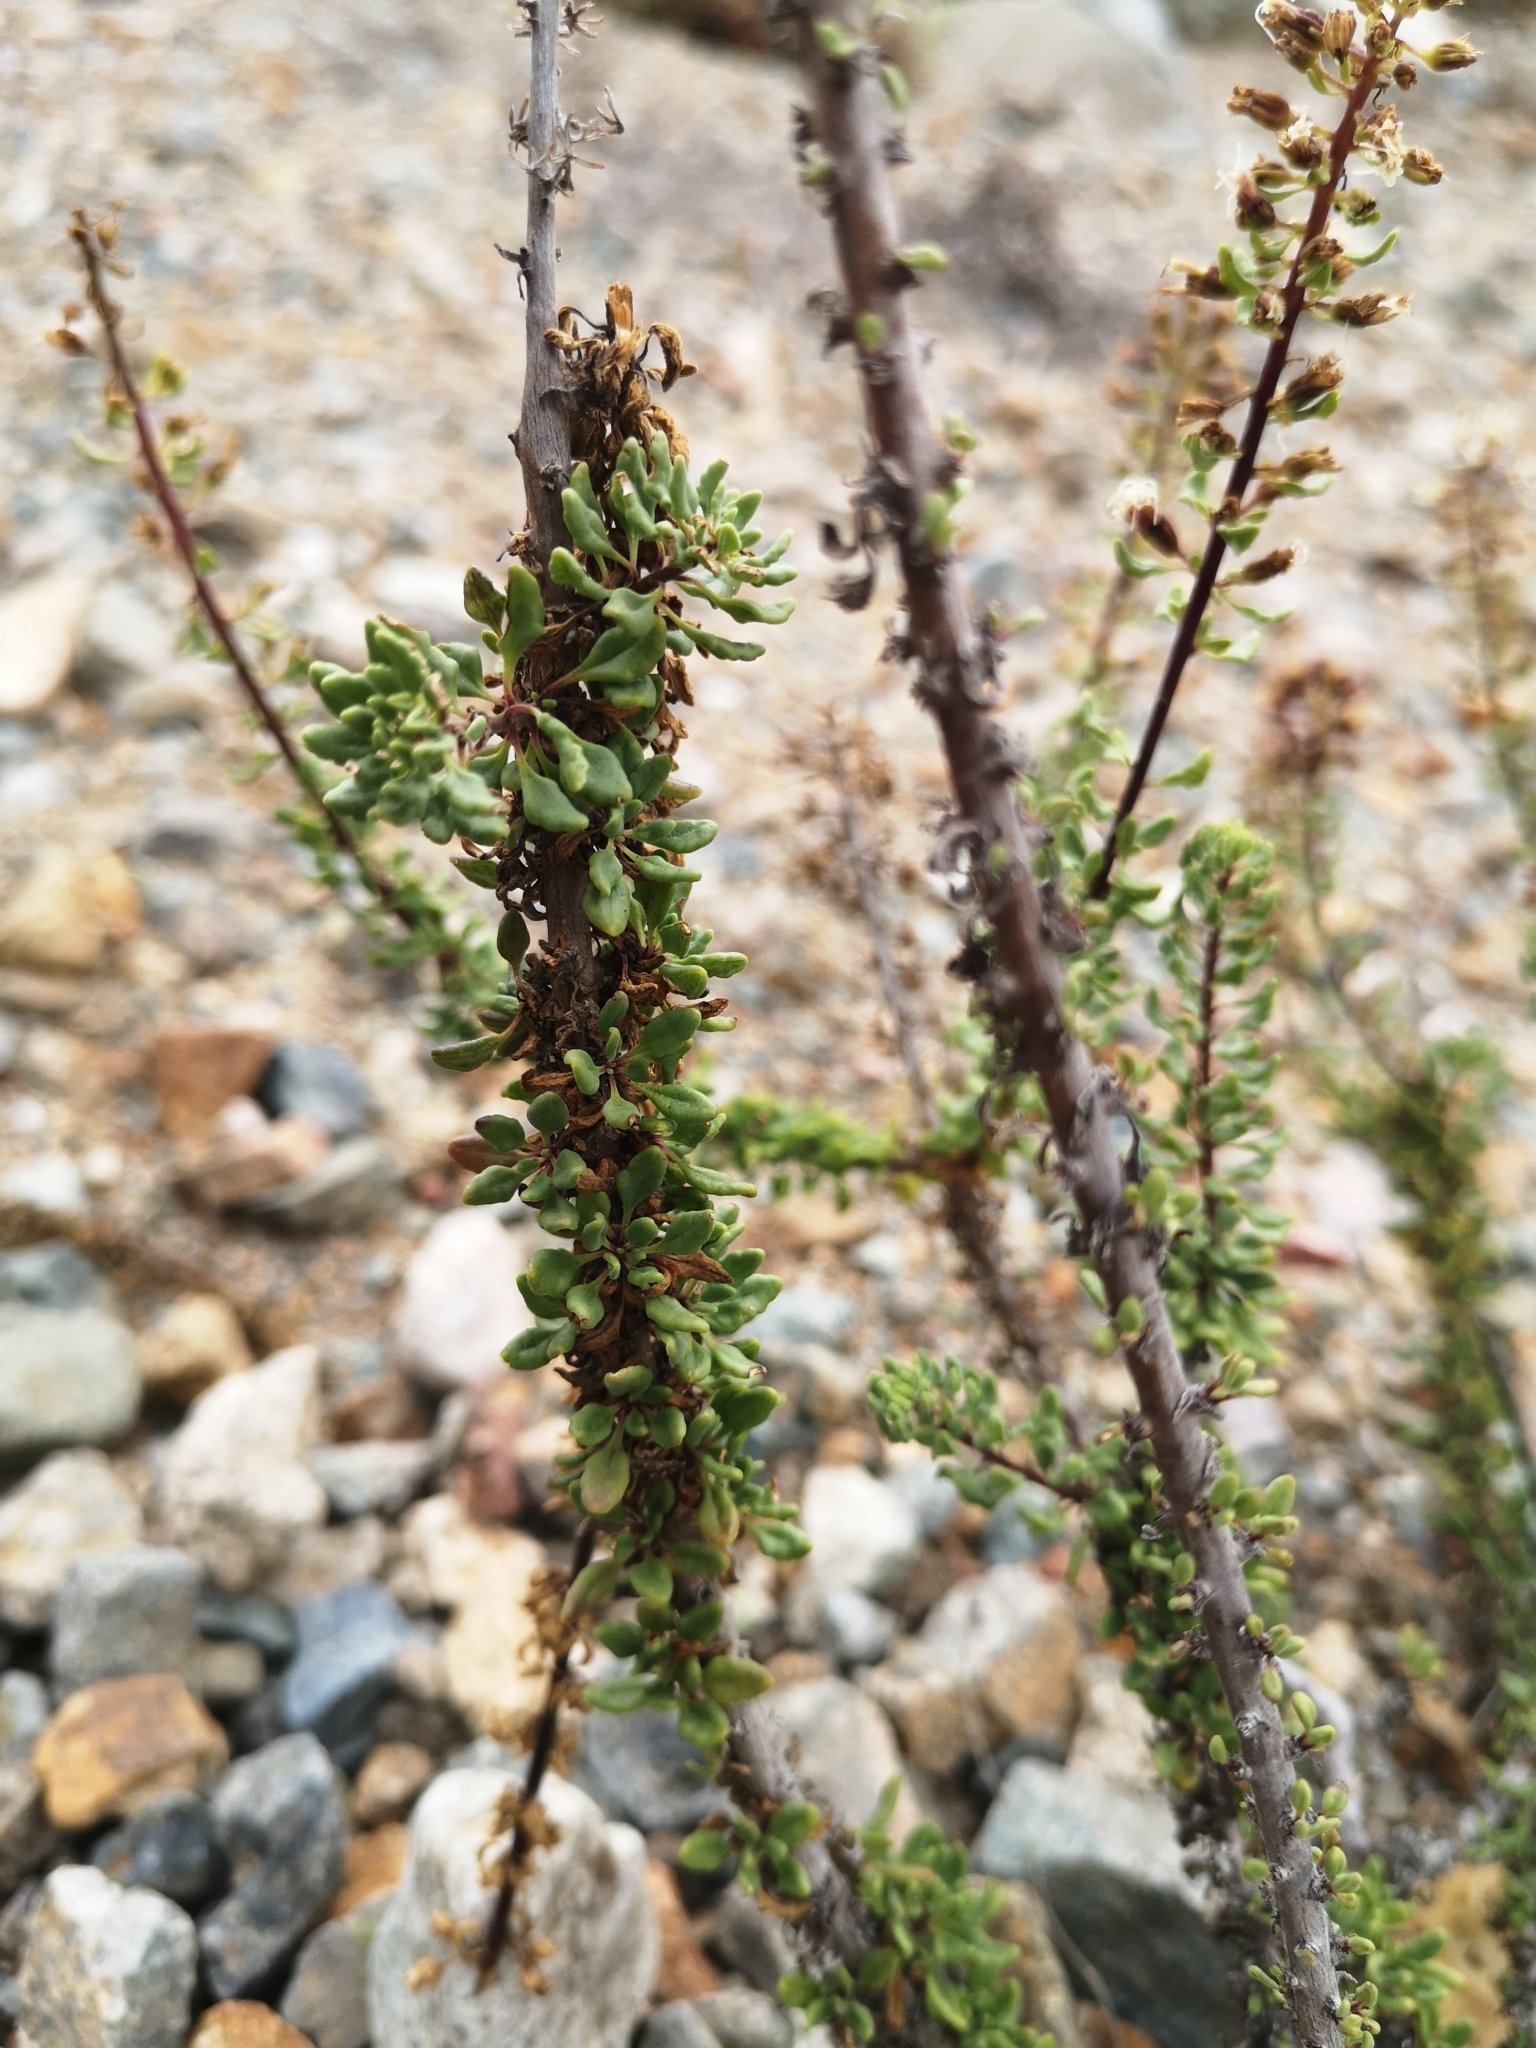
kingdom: Plantae
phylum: Tracheophyta
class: Magnoliopsida
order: Asterales
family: Asteraceae
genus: Ophryosporus
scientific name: Ophryosporus triangularis
